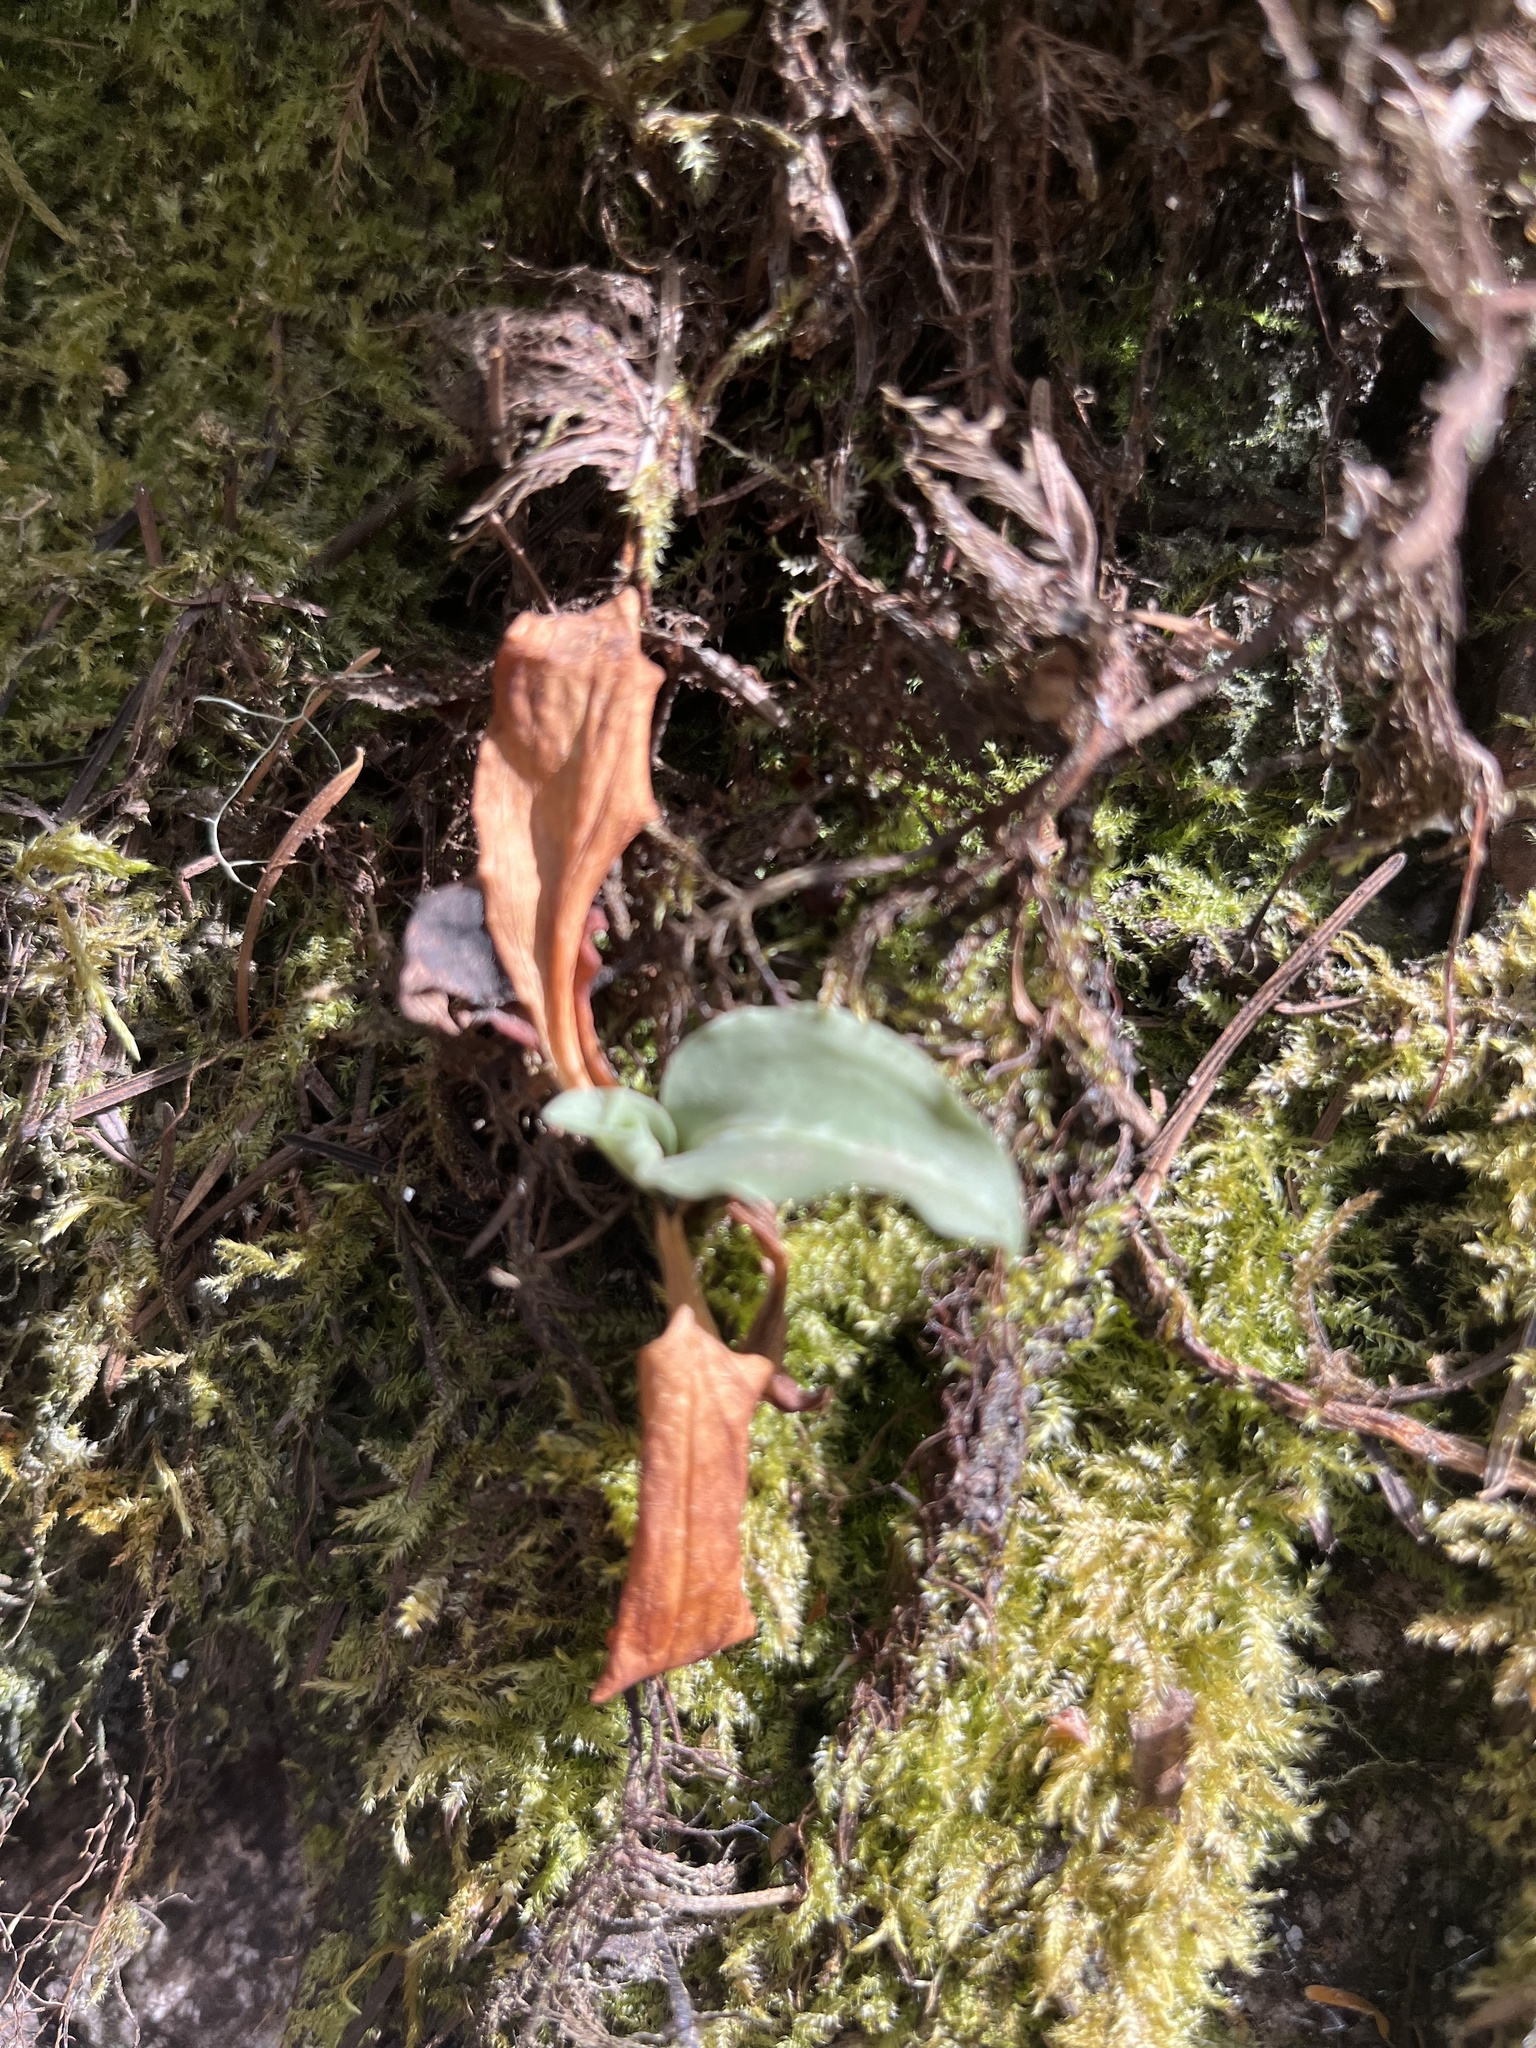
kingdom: Plantae
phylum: Tracheophyta
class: Liliopsida
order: Asparagales
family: Orchidaceae
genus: Goodyera
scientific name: Goodyera oblongifolia
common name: Giant rattlesnake-plantain
